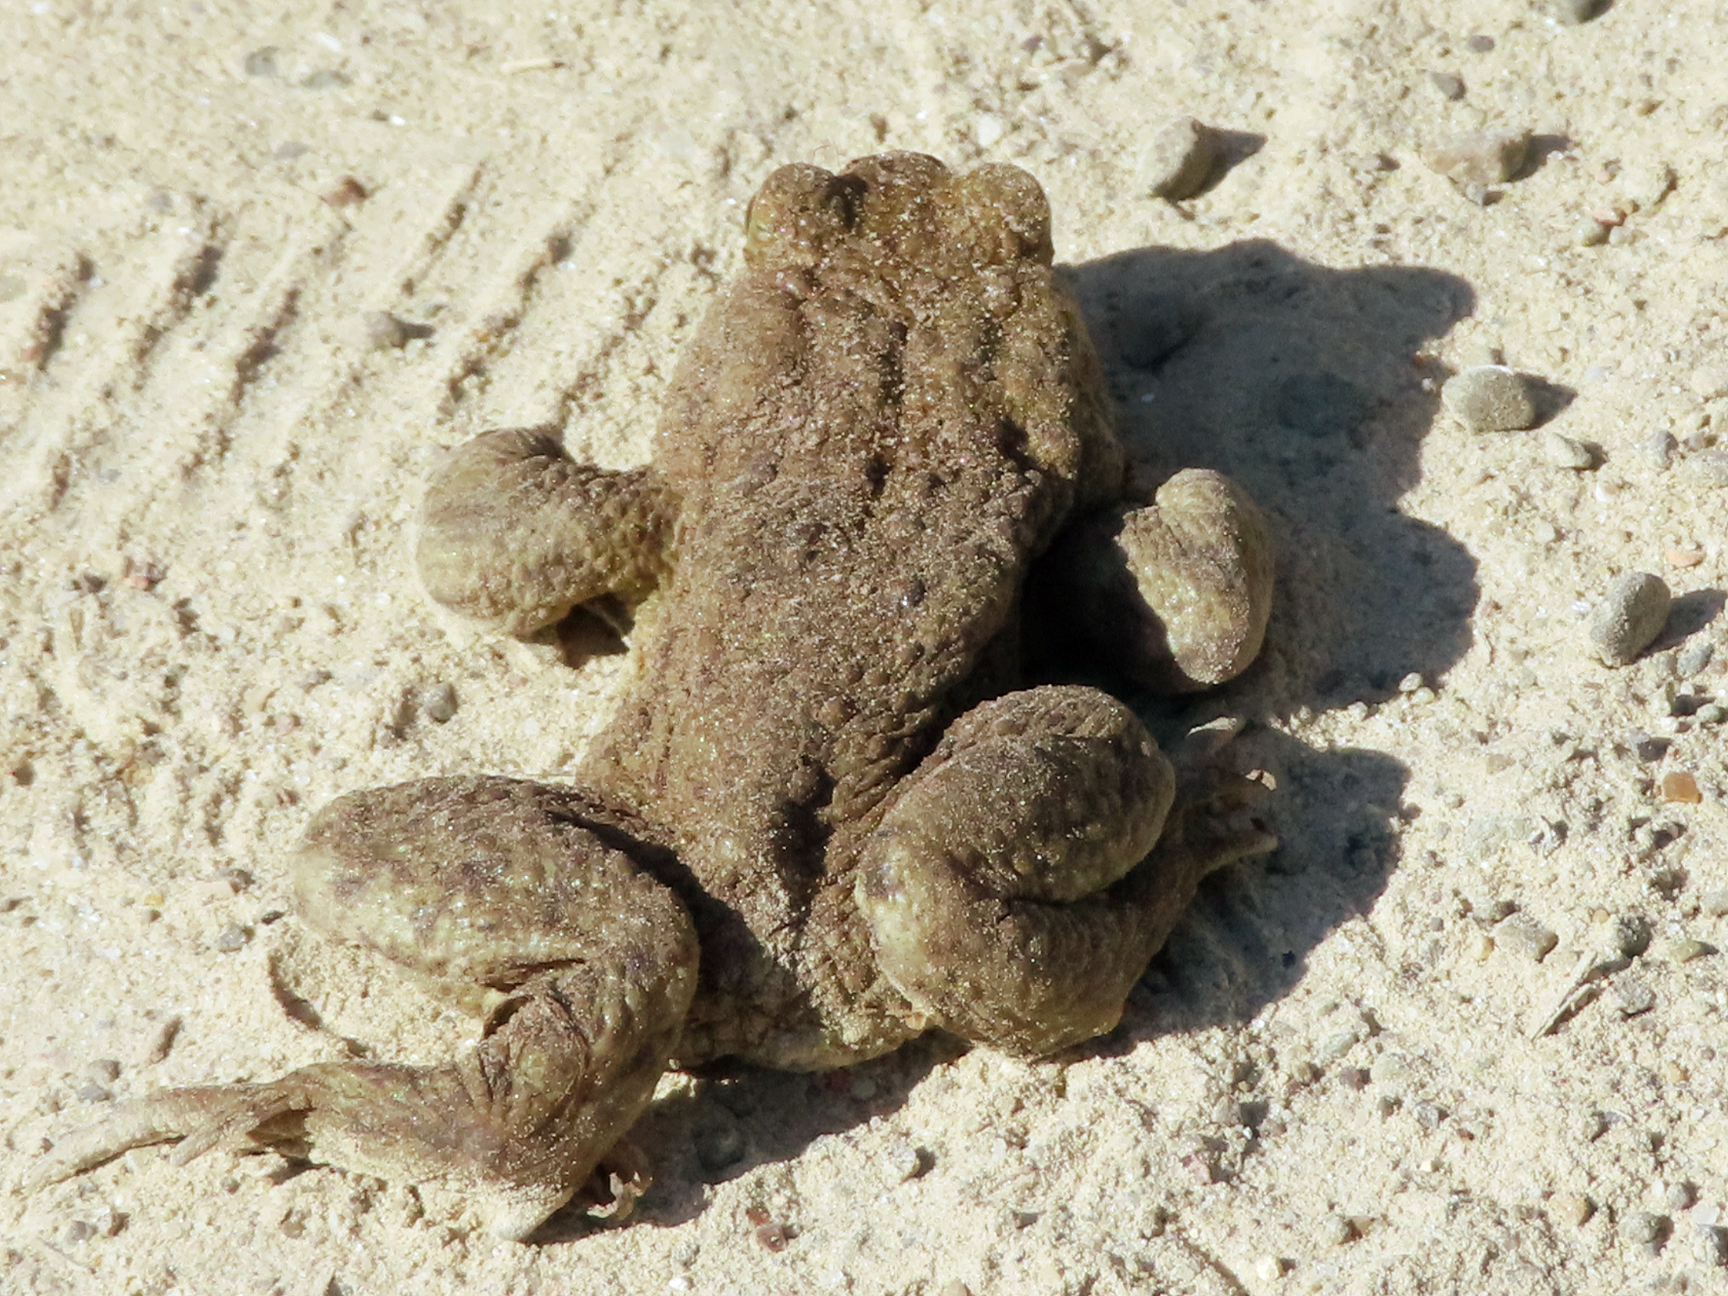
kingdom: Animalia
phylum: Chordata
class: Amphibia
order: Anura
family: Bufonidae
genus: Bufo
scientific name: Bufo bufo
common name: Common toad
